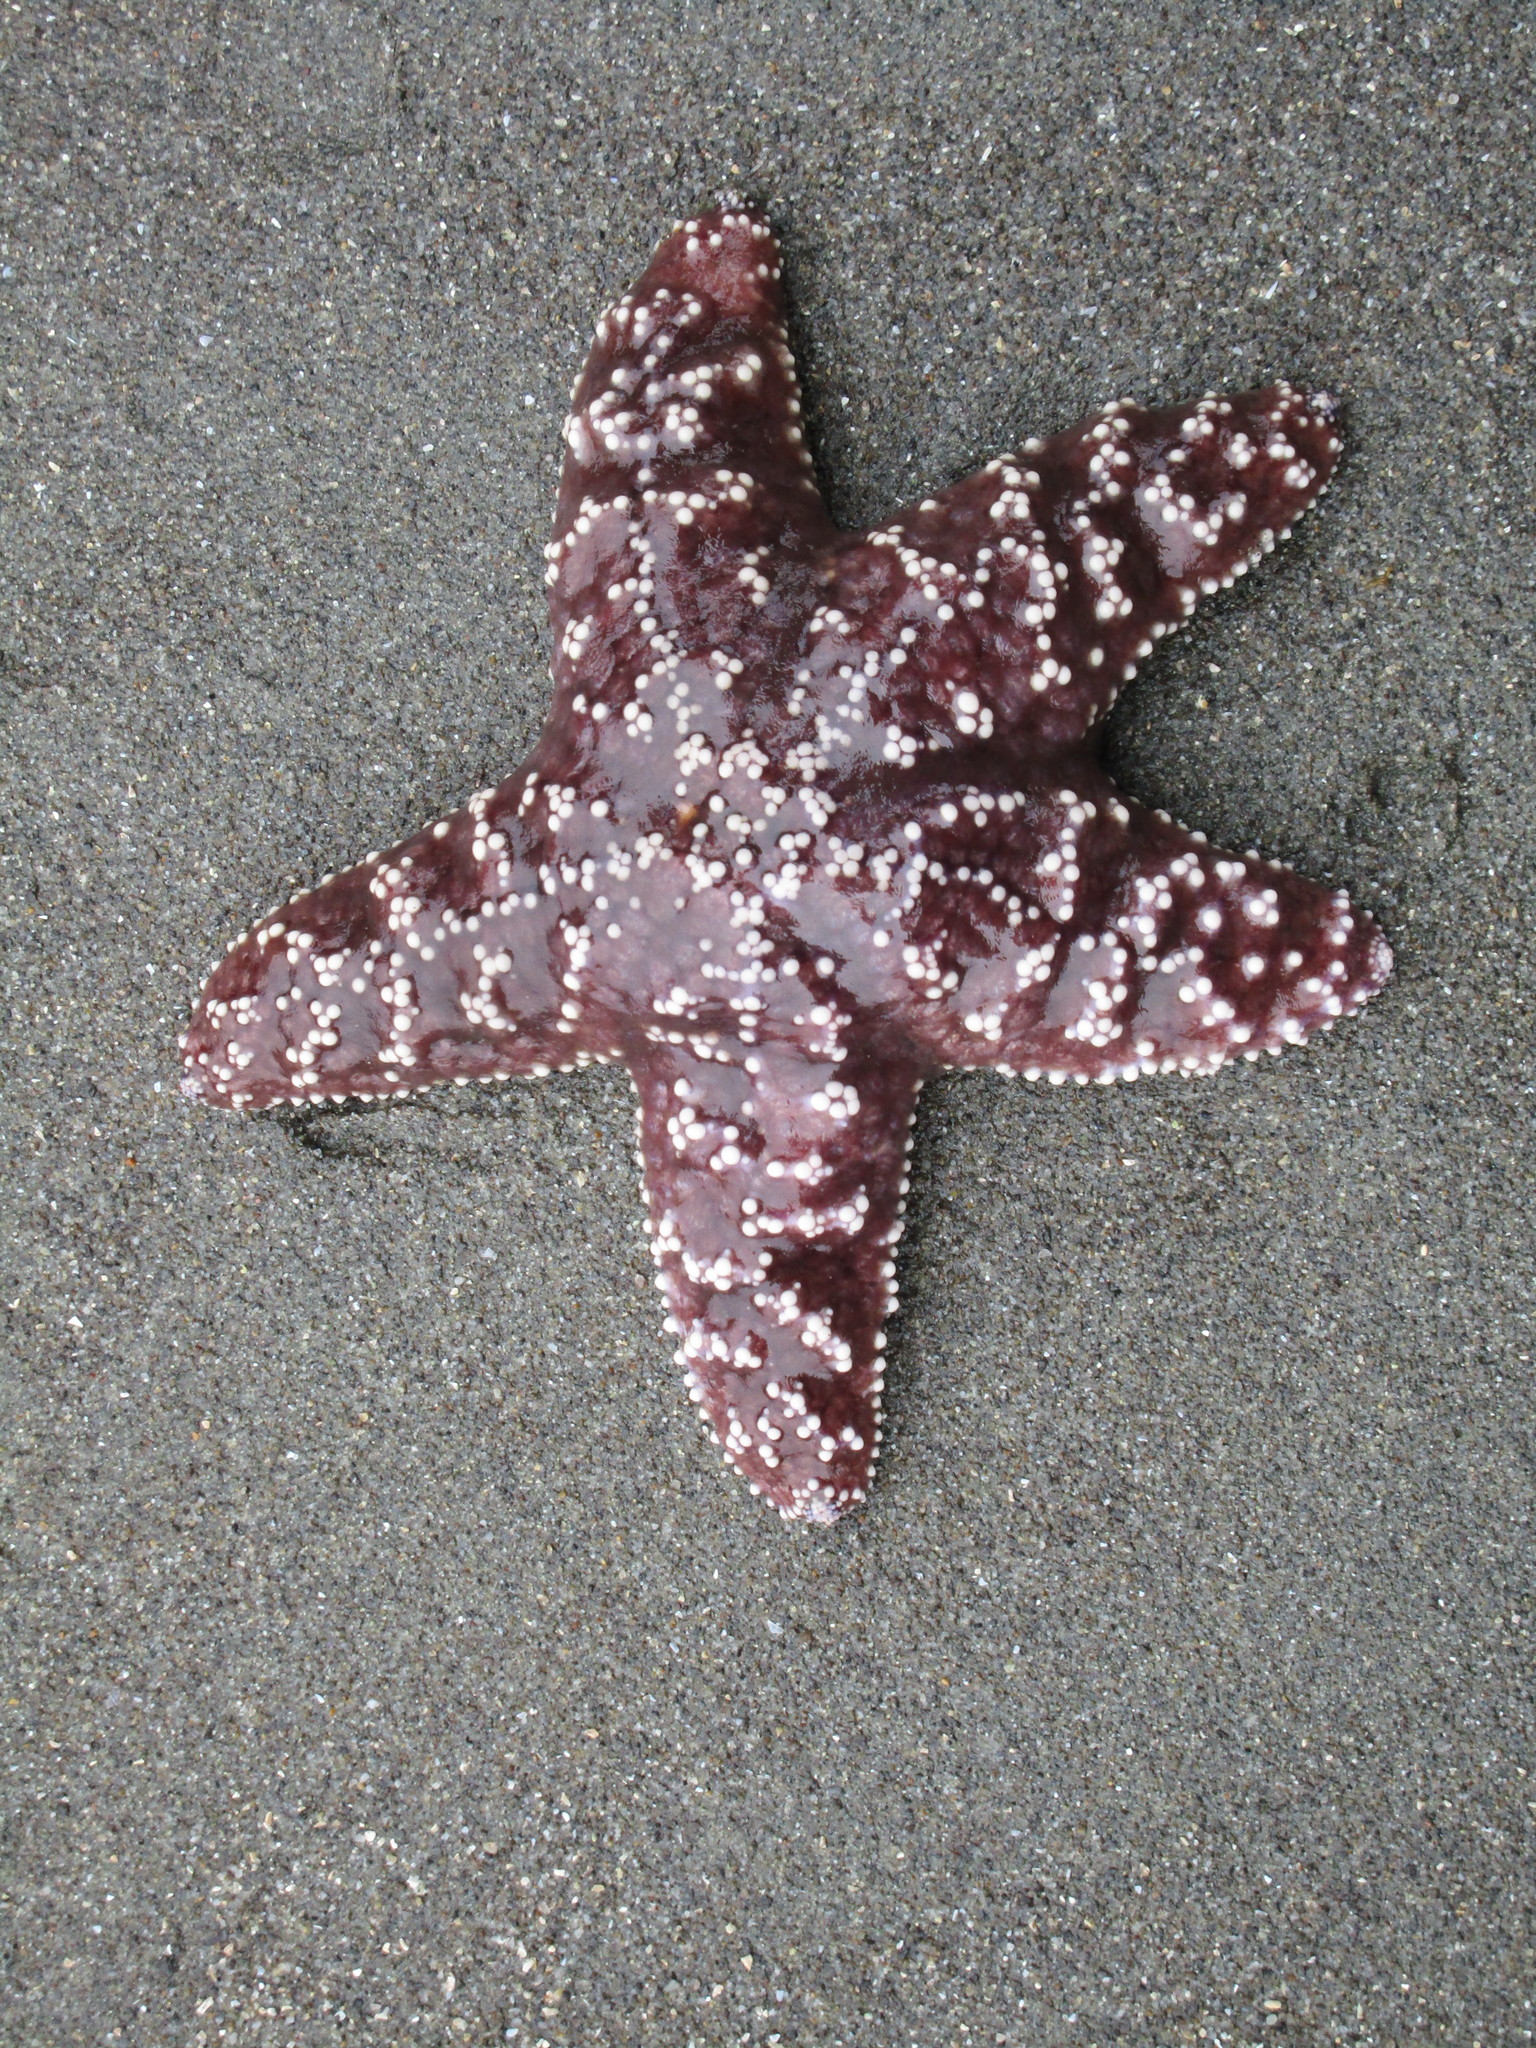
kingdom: Animalia
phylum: Echinodermata
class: Asteroidea
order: Forcipulatida
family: Asteriidae
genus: Pisaster
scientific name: Pisaster ochraceus
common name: Ochre stars
